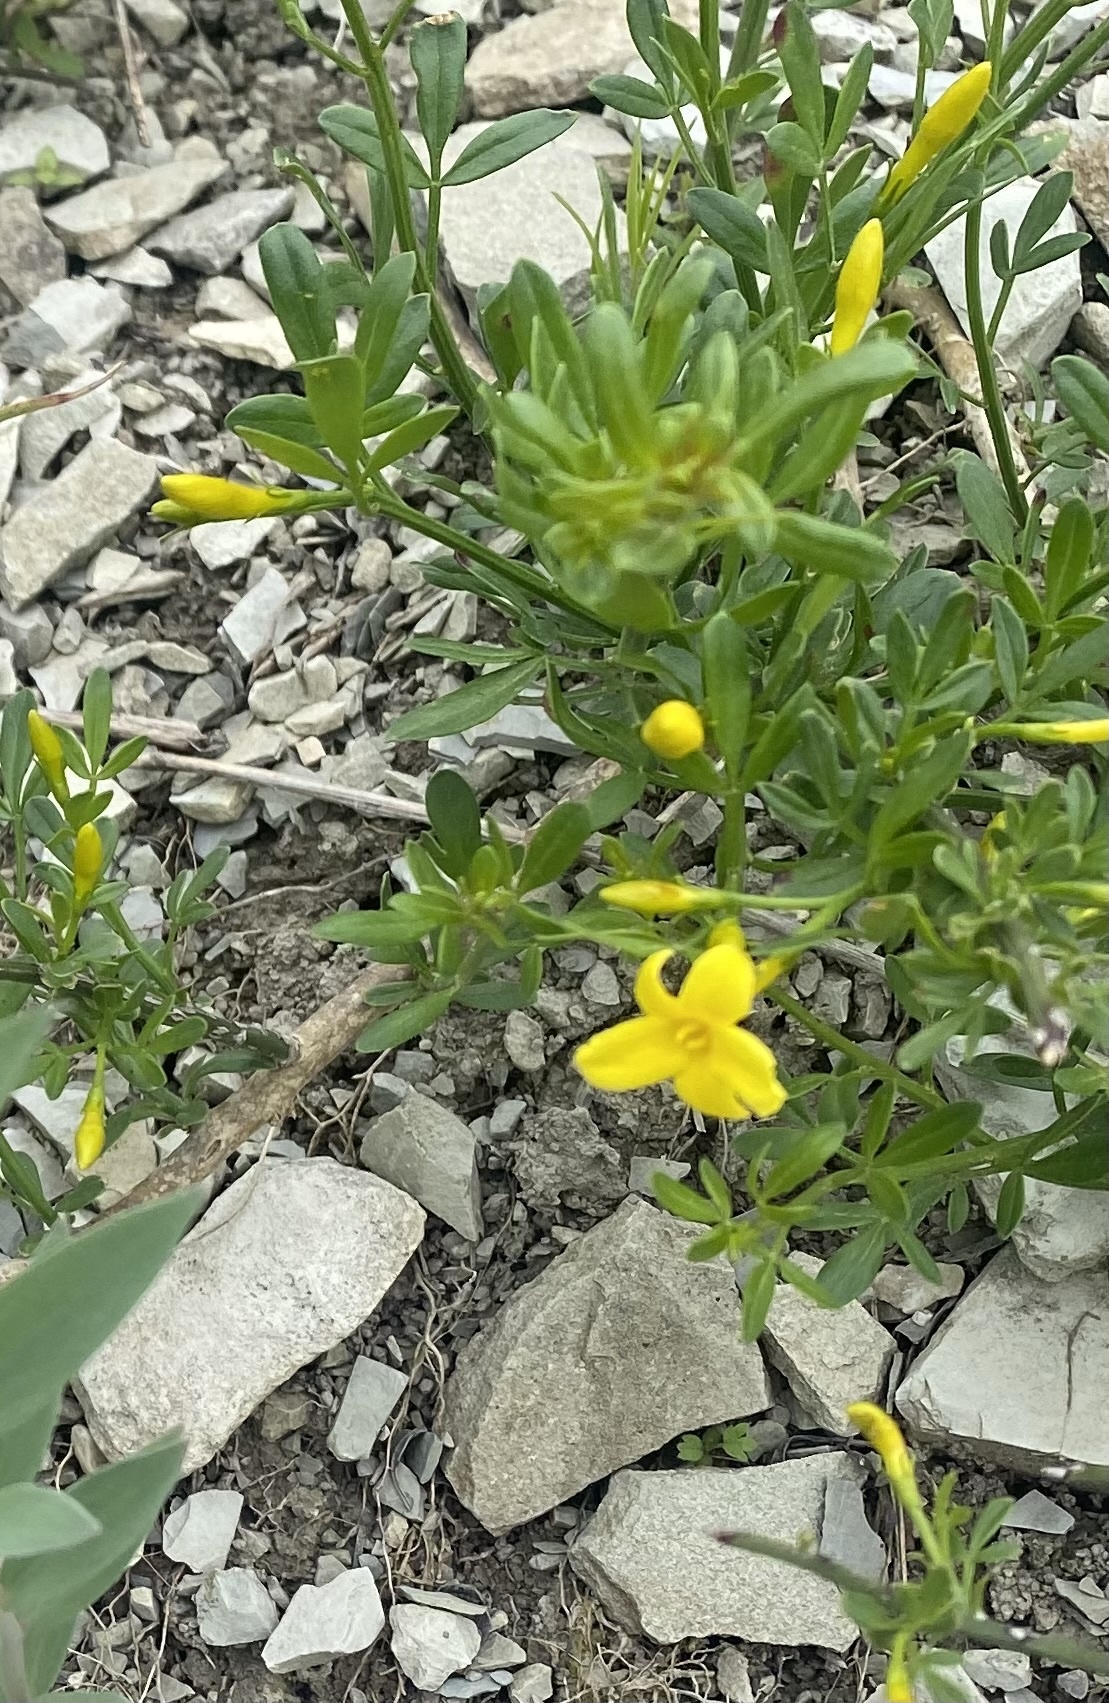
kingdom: Plantae
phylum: Tracheophyta
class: Magnoliopsida
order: Lamiales
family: Oleaceae
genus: Chrysojasminum
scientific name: Chrysojasminum fruticans
